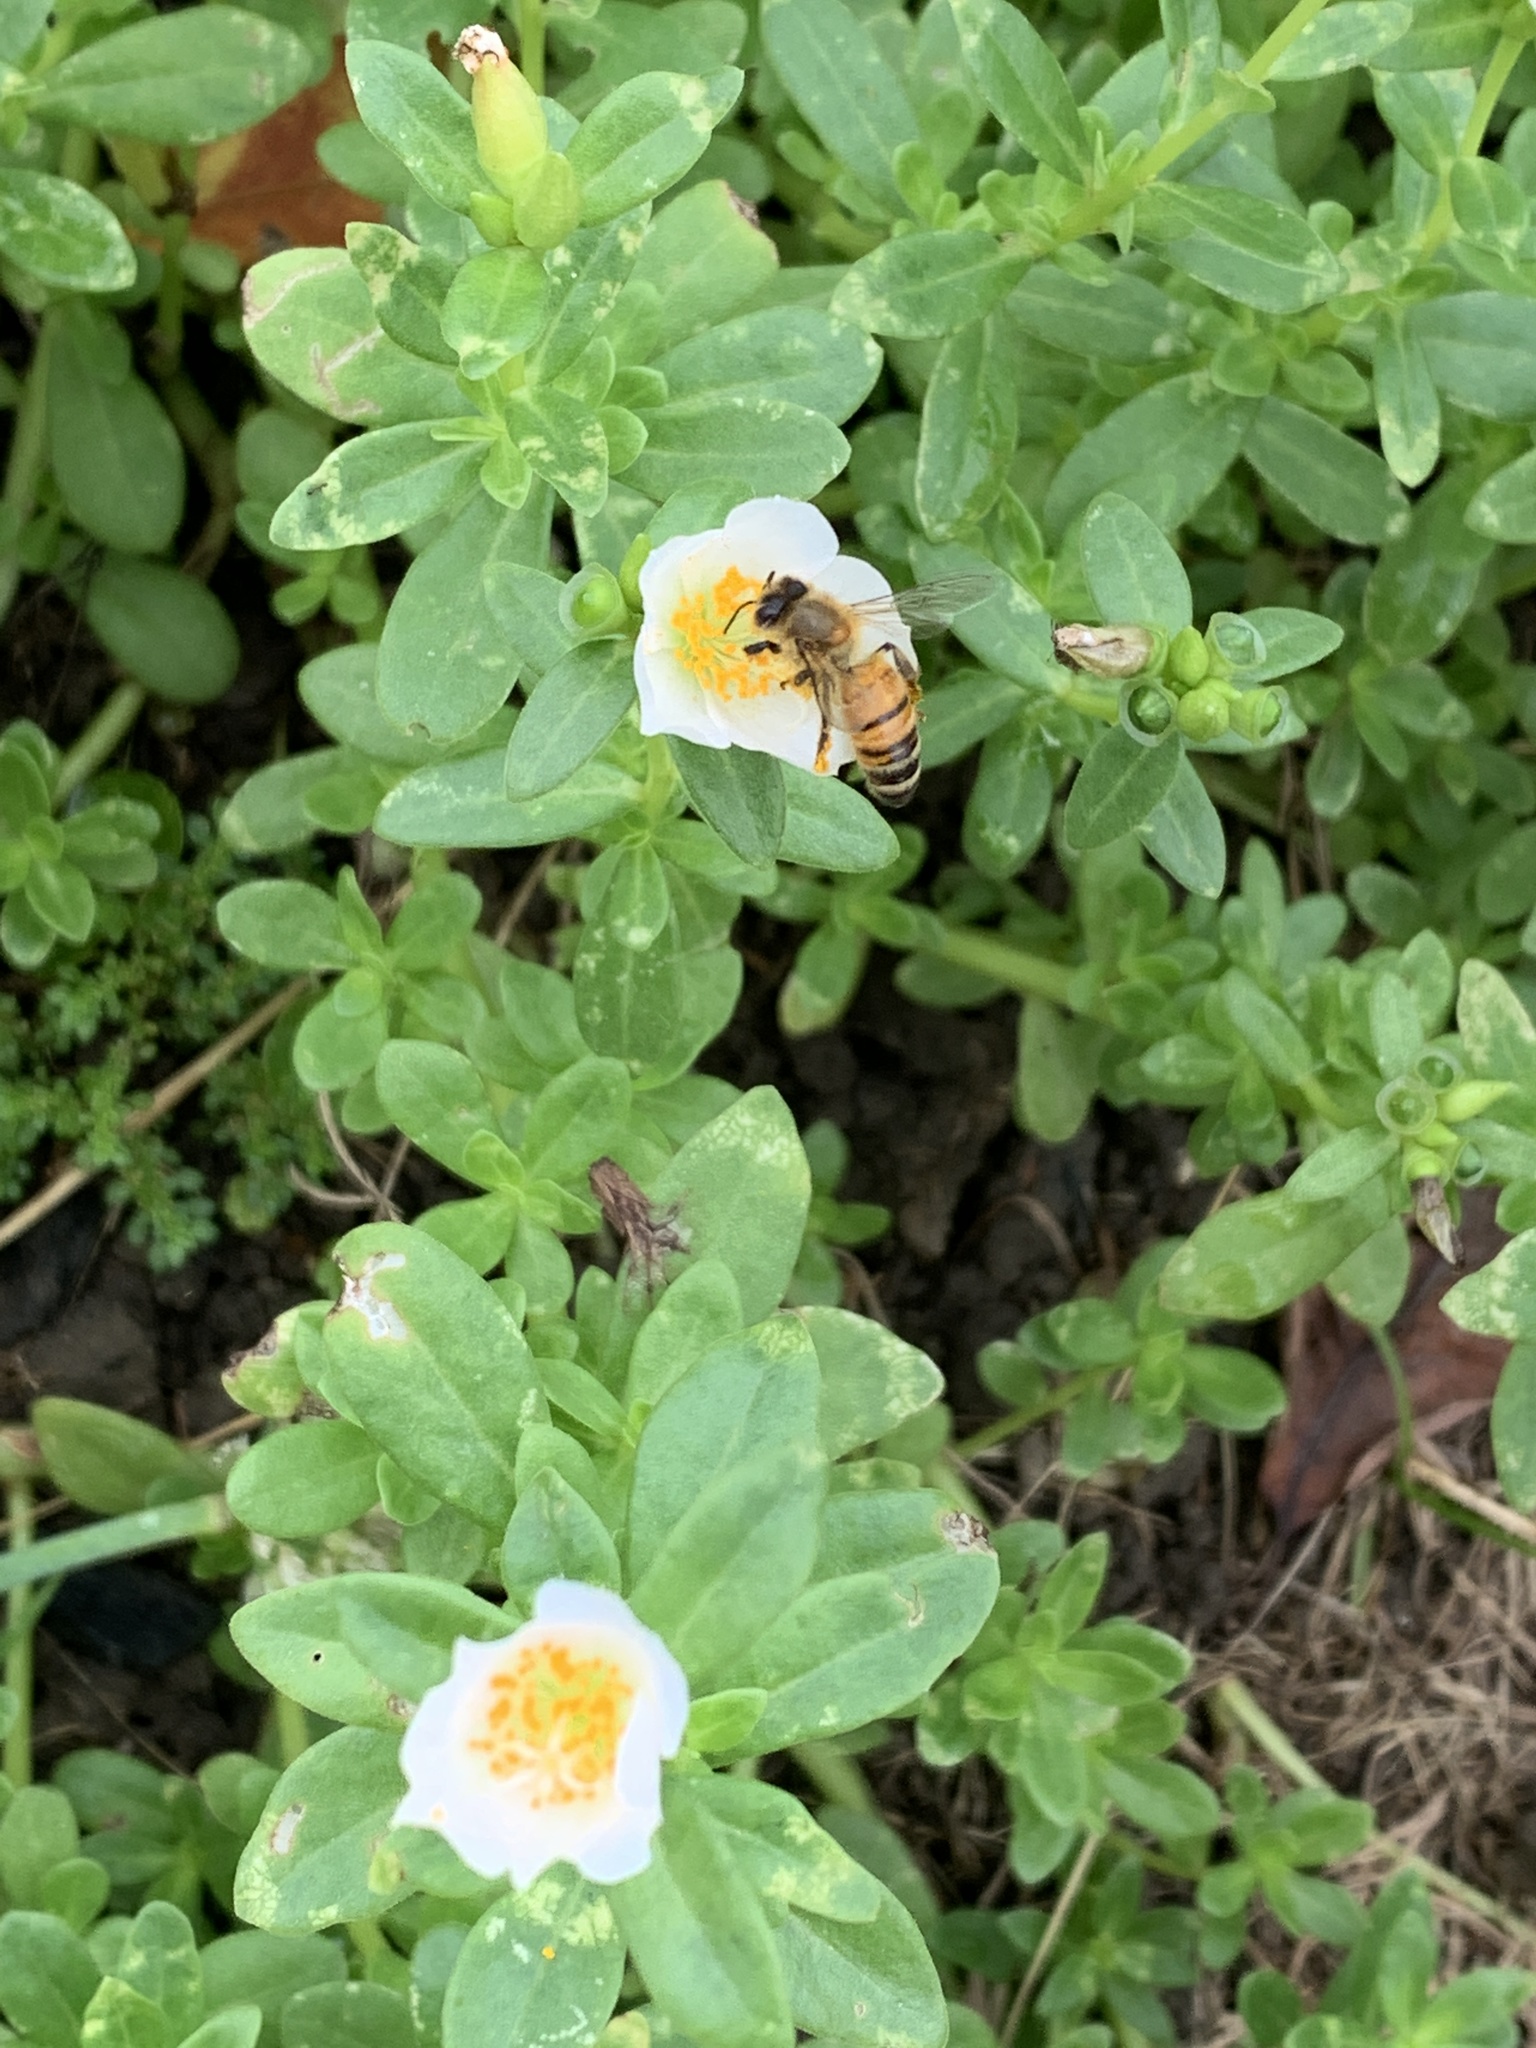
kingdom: Animalia
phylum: Arthropoda
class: Insecta
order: Hymenoptera
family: Apidae
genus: Apis
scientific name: Apis mellifera
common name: Honey bee
